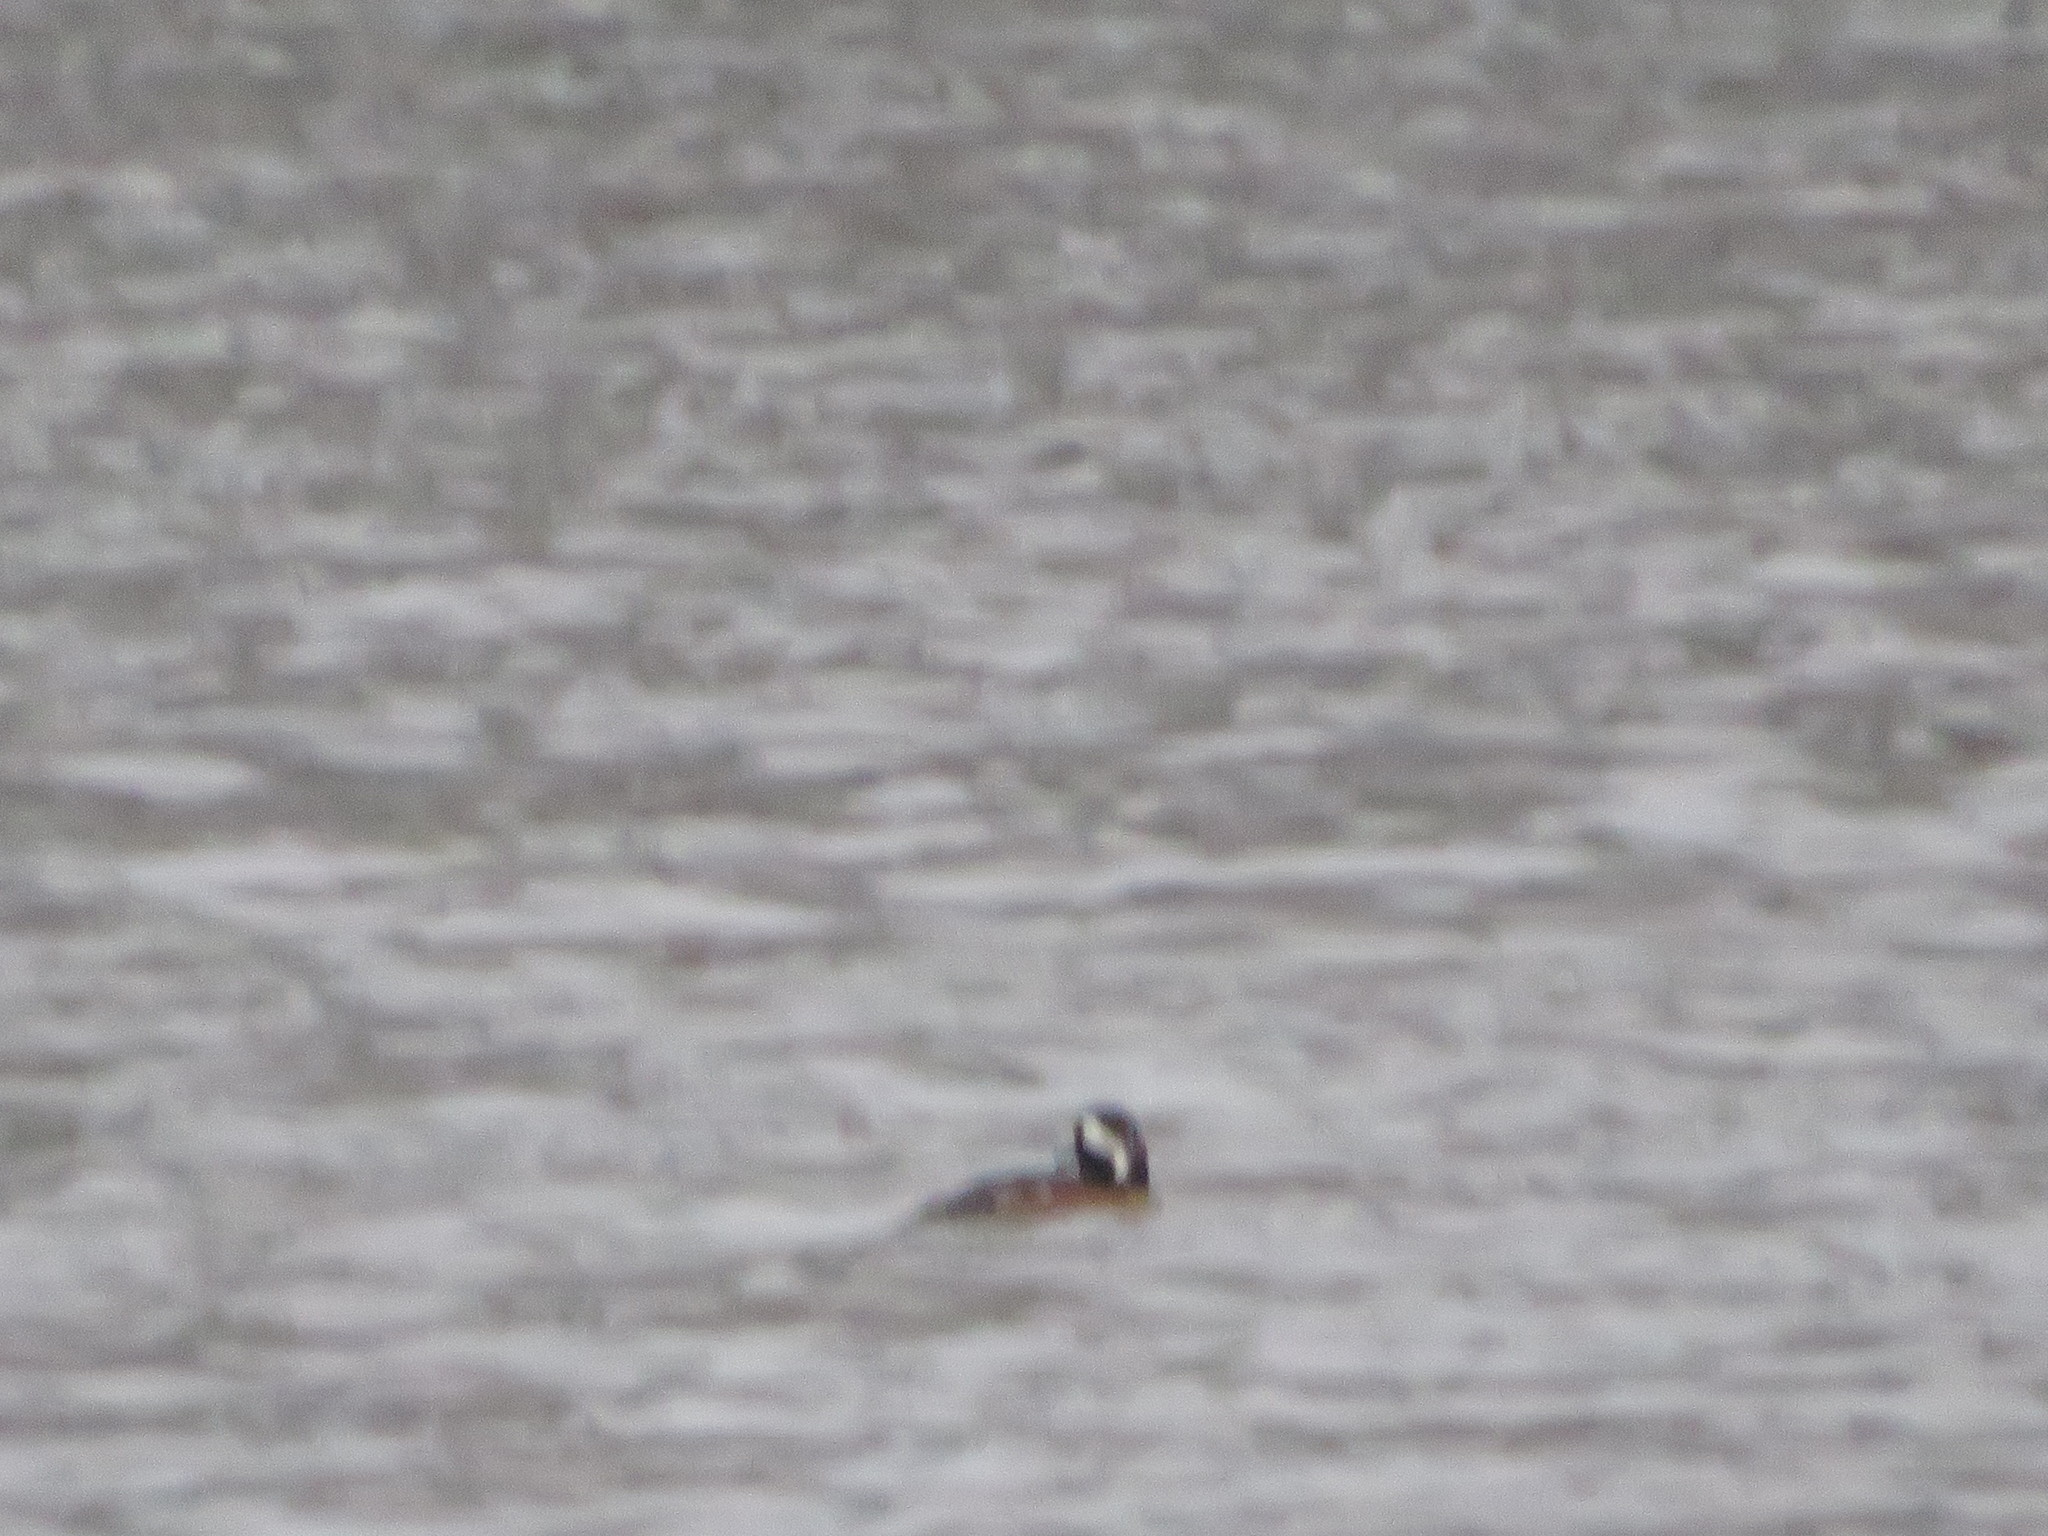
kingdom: Animalia
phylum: Chordata
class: Aves
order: Anseriformes
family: Anatidae
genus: Lophodytes
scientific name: Lophodytes cucullatus
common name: Hooded merganser
